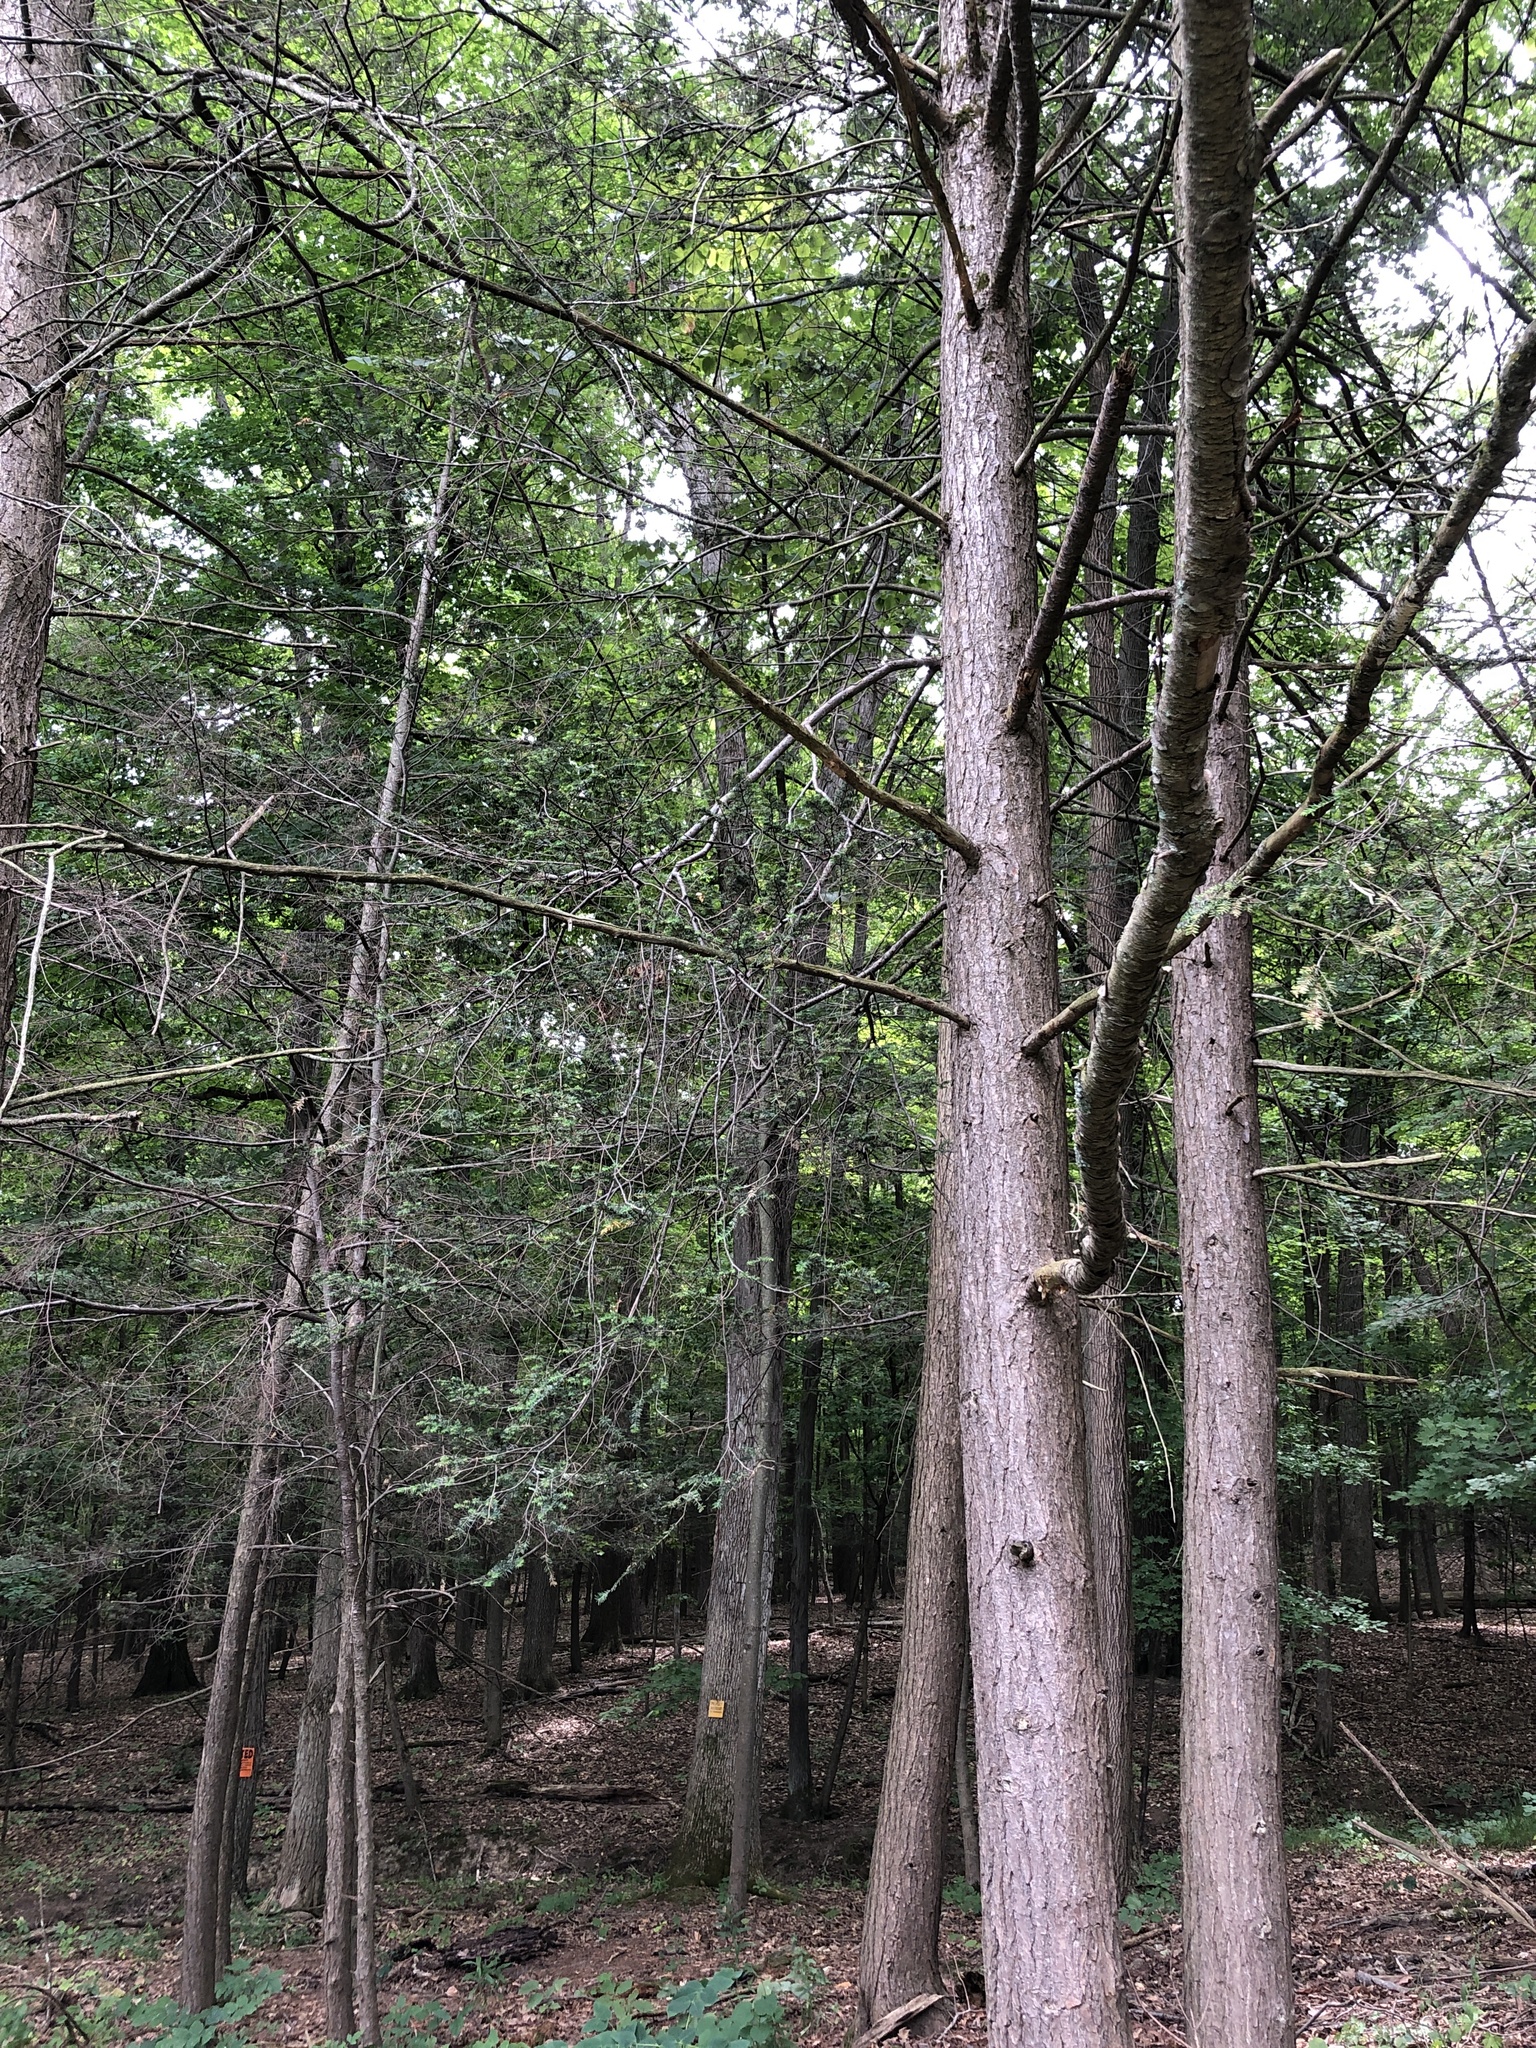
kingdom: Plantae
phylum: Tracheophyta
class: Pinopsida
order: Pinales
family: Pinaceae
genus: Tsuga
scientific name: Tsuga canadensis
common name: Eastern hemlock
